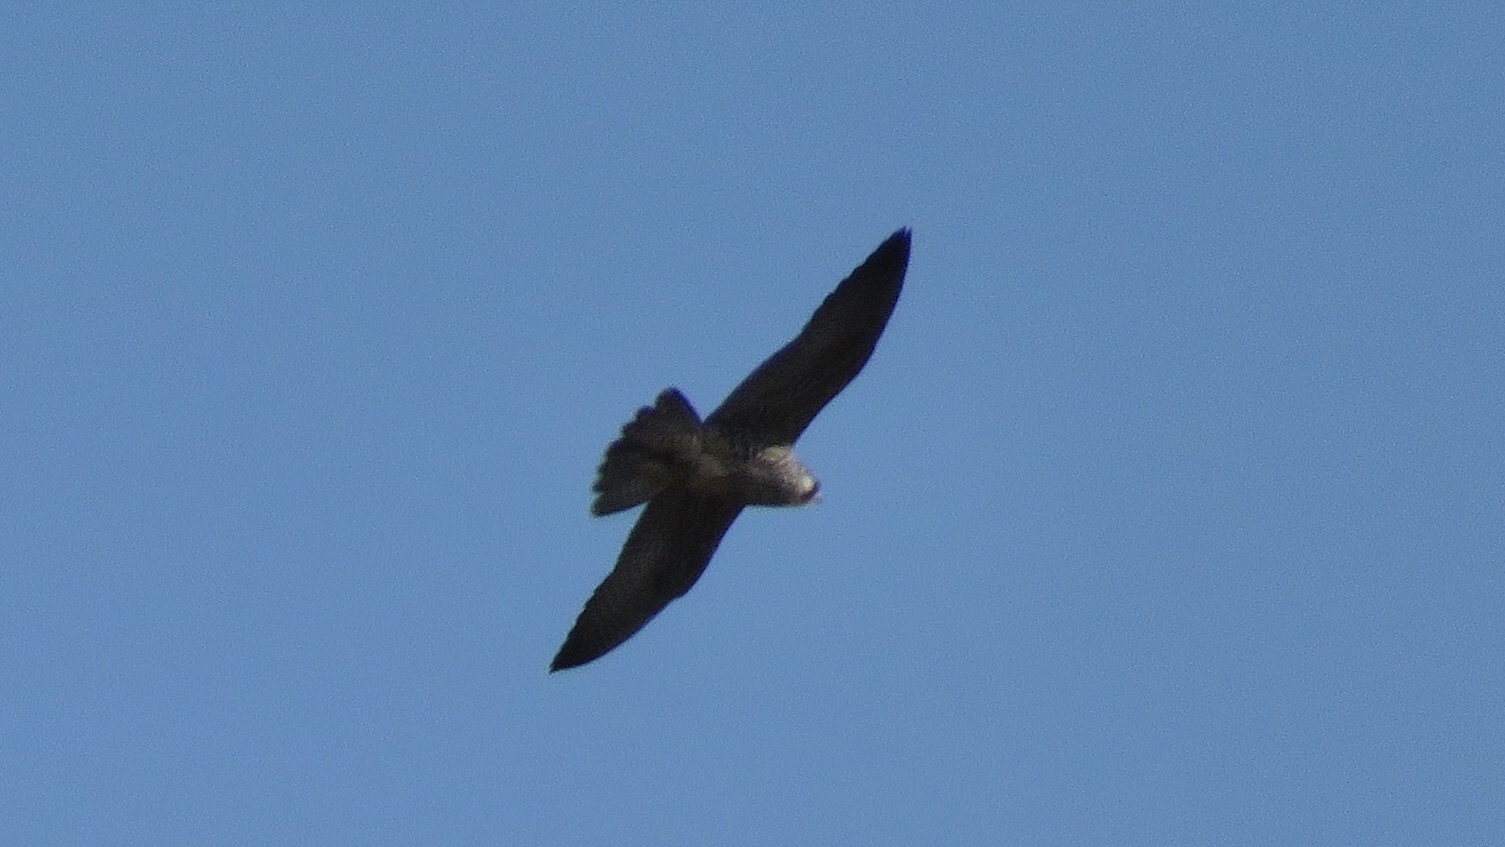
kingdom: Animalia
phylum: Chordata
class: Aves
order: Falconiformes
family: Falconidae
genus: Falco
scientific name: Falco peregrinus
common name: Peregrine falcon
